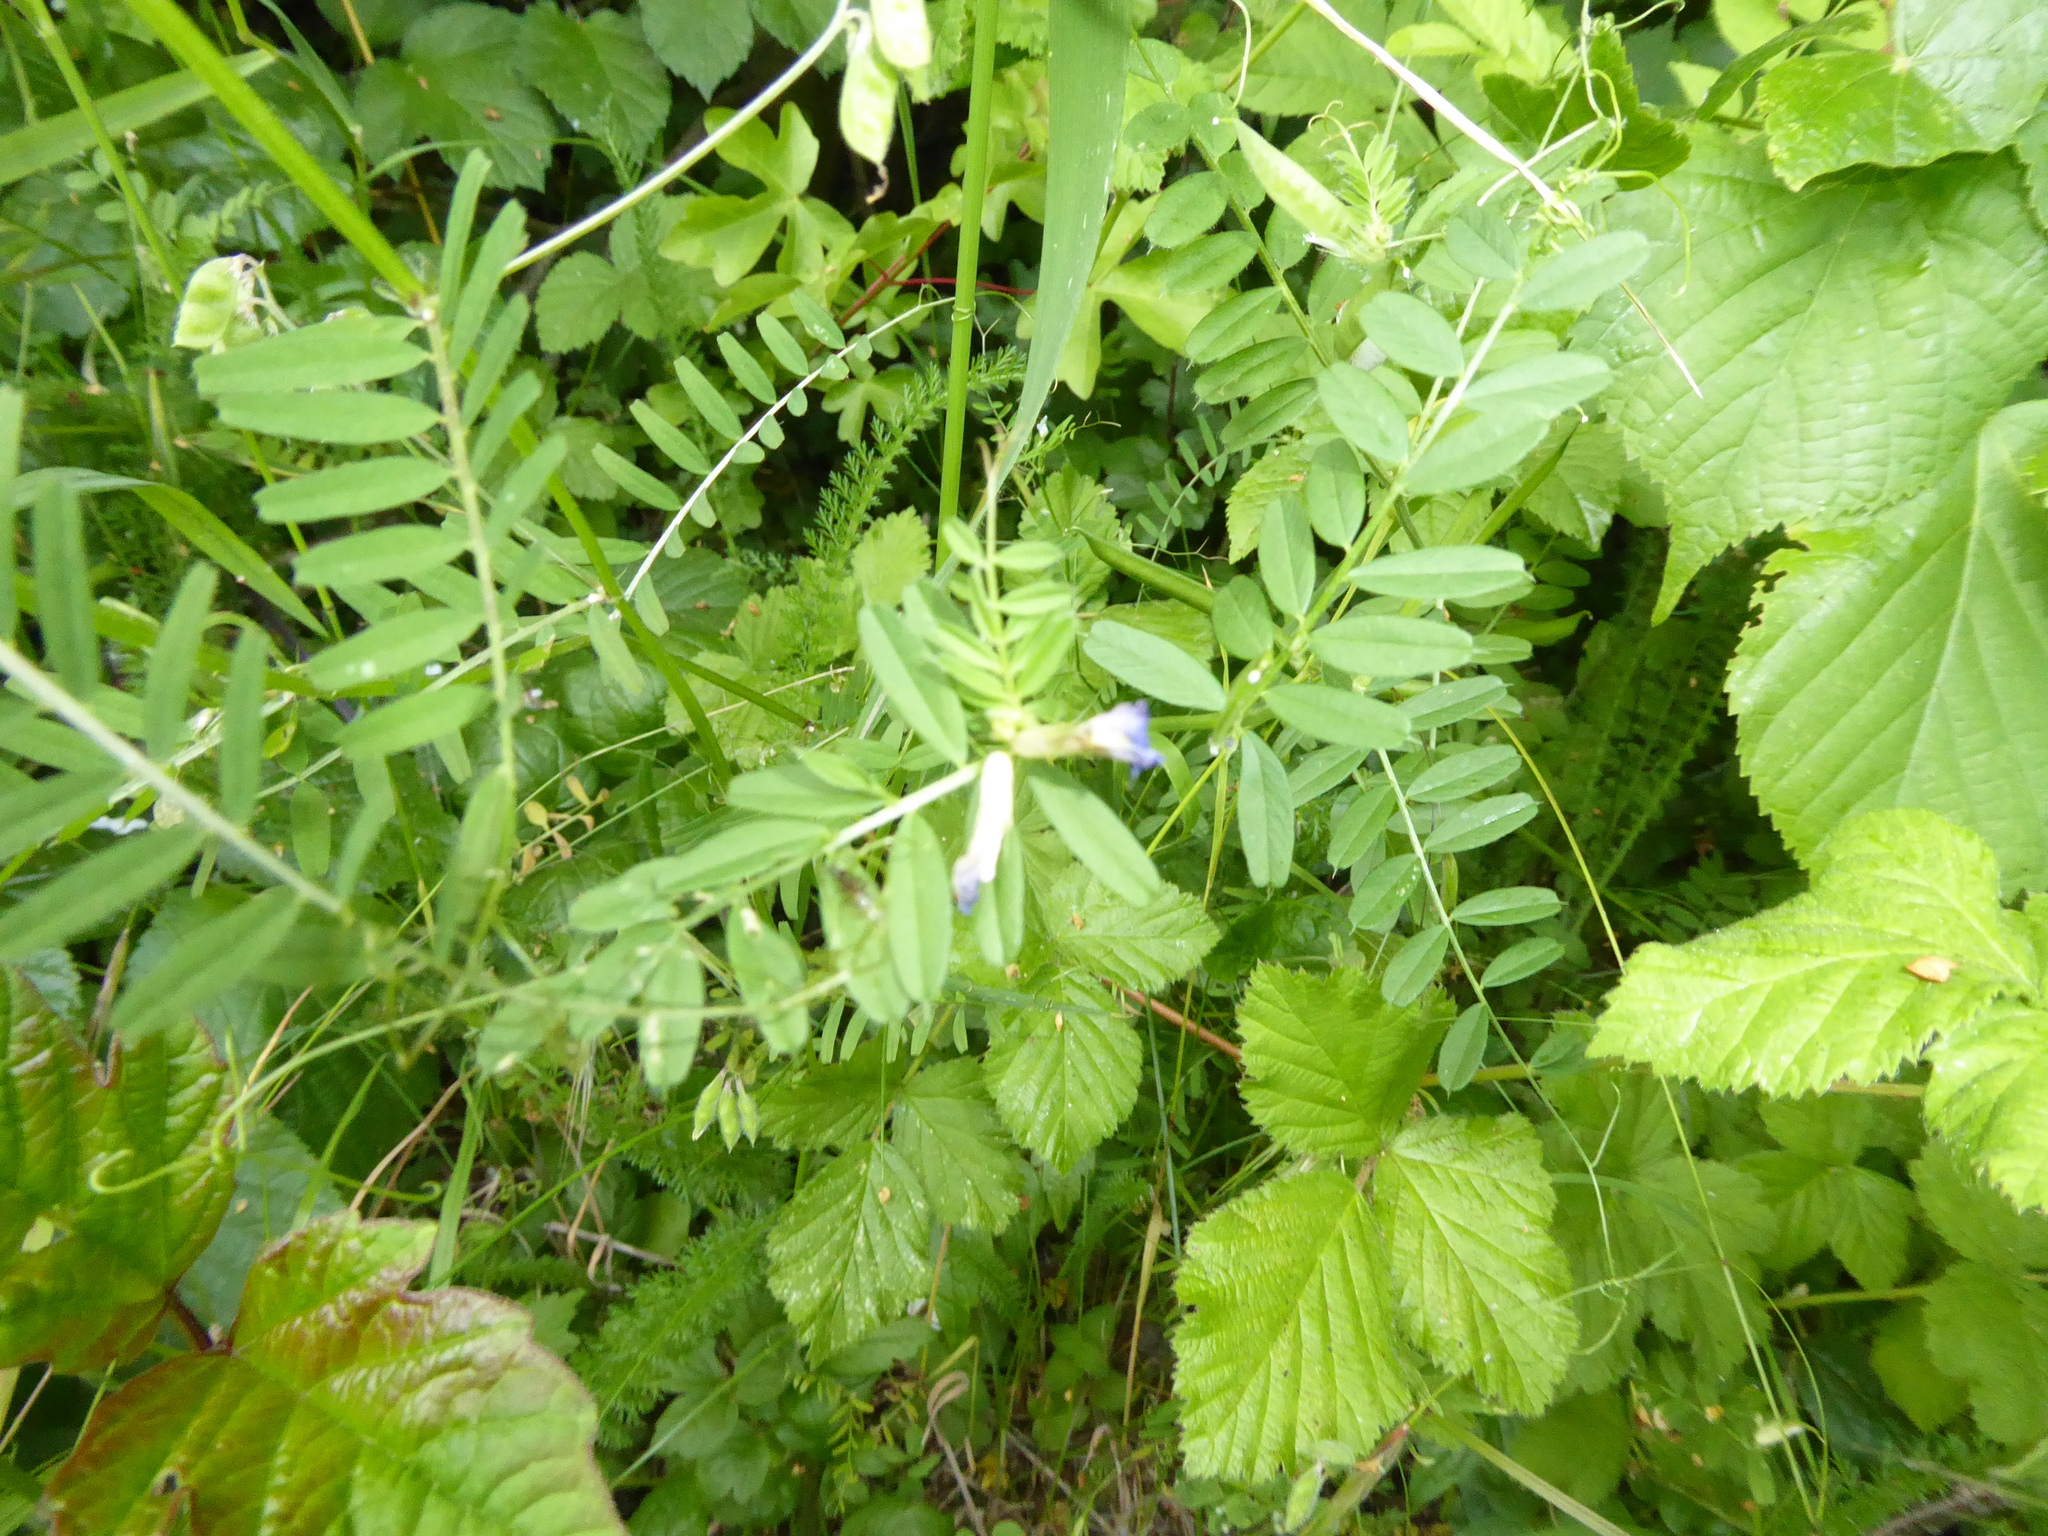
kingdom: Plantae
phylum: Tracheophyta
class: Magnoliopsida
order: Fabales
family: Fabaceae
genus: Vicia
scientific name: Vicia hirsuta
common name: Tiny vetch
